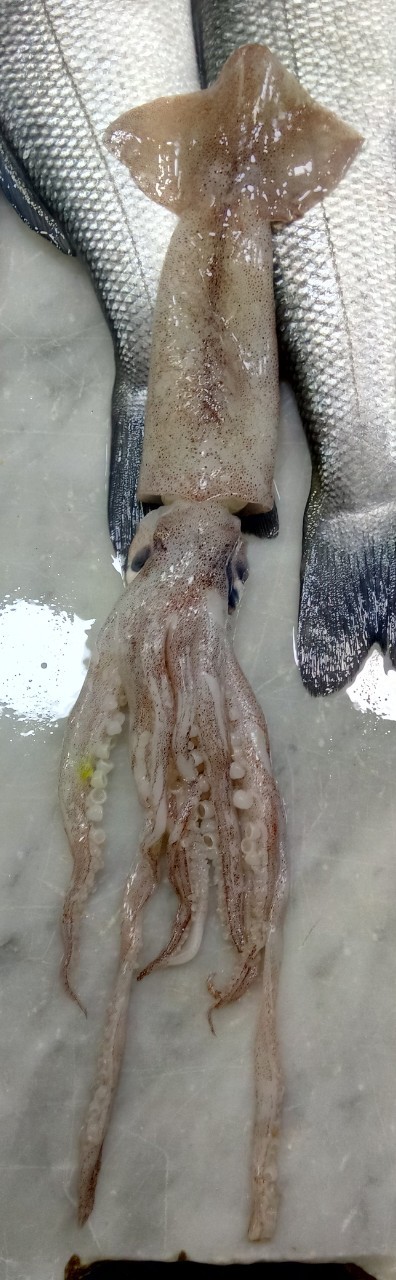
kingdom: Animalia
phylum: Mollusca
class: Cephalopoda
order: Oegopsida
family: Ommastrephidae
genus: Illex
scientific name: Illex coindetii
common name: Broadtail shortfin squid
